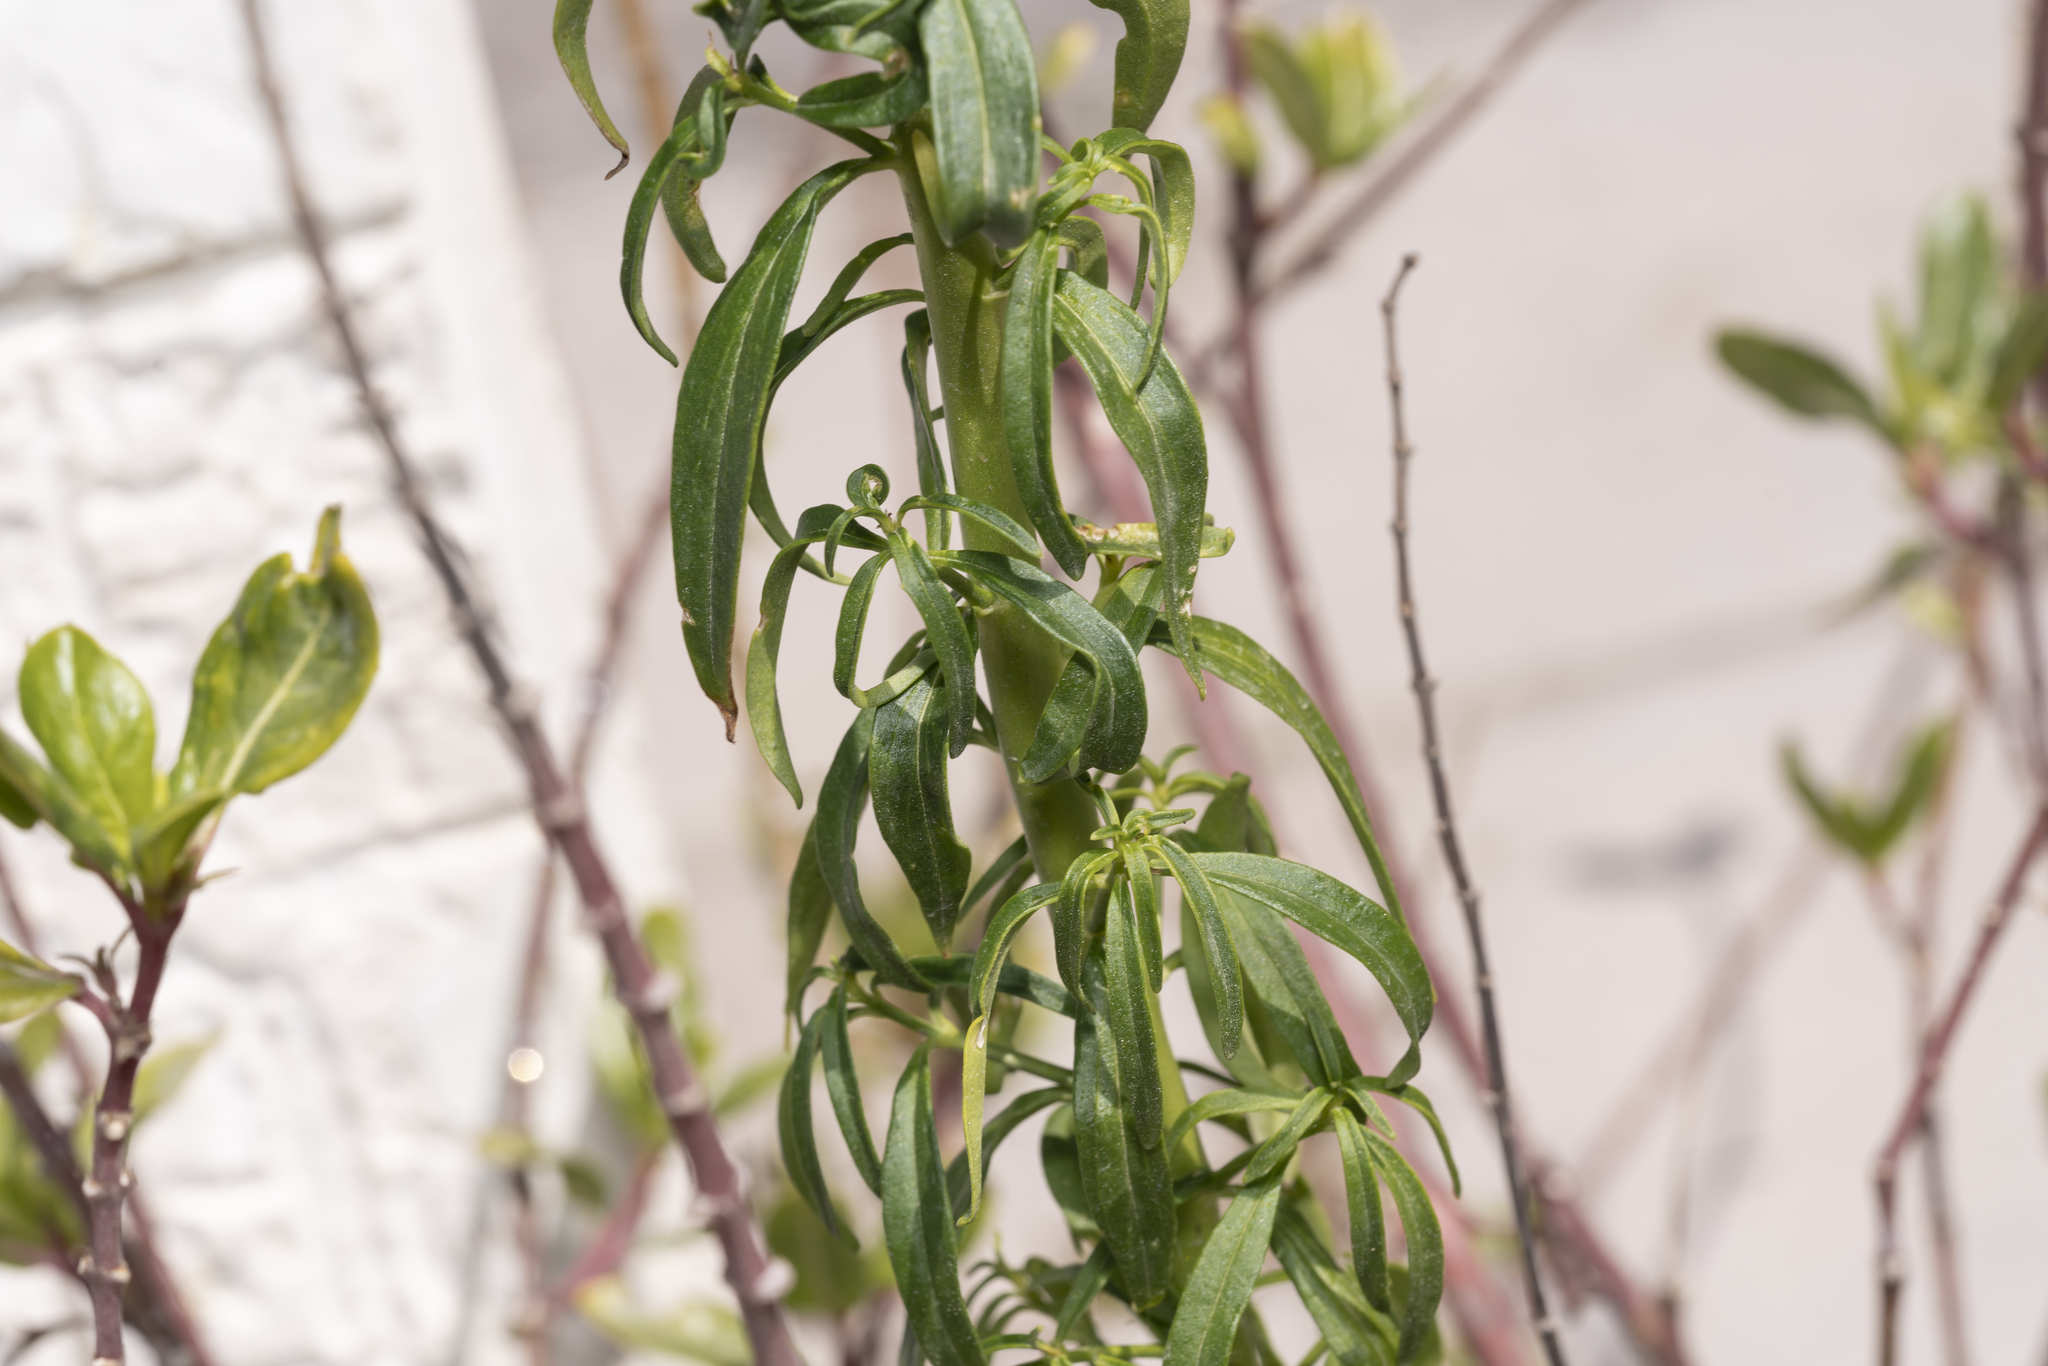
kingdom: Plantae
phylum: Tracheophyta
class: Magnoliopsida
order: Lamiales
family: Plantaginaceae
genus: Antirrhinum
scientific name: Antirrhinum majus
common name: Snapdragon
